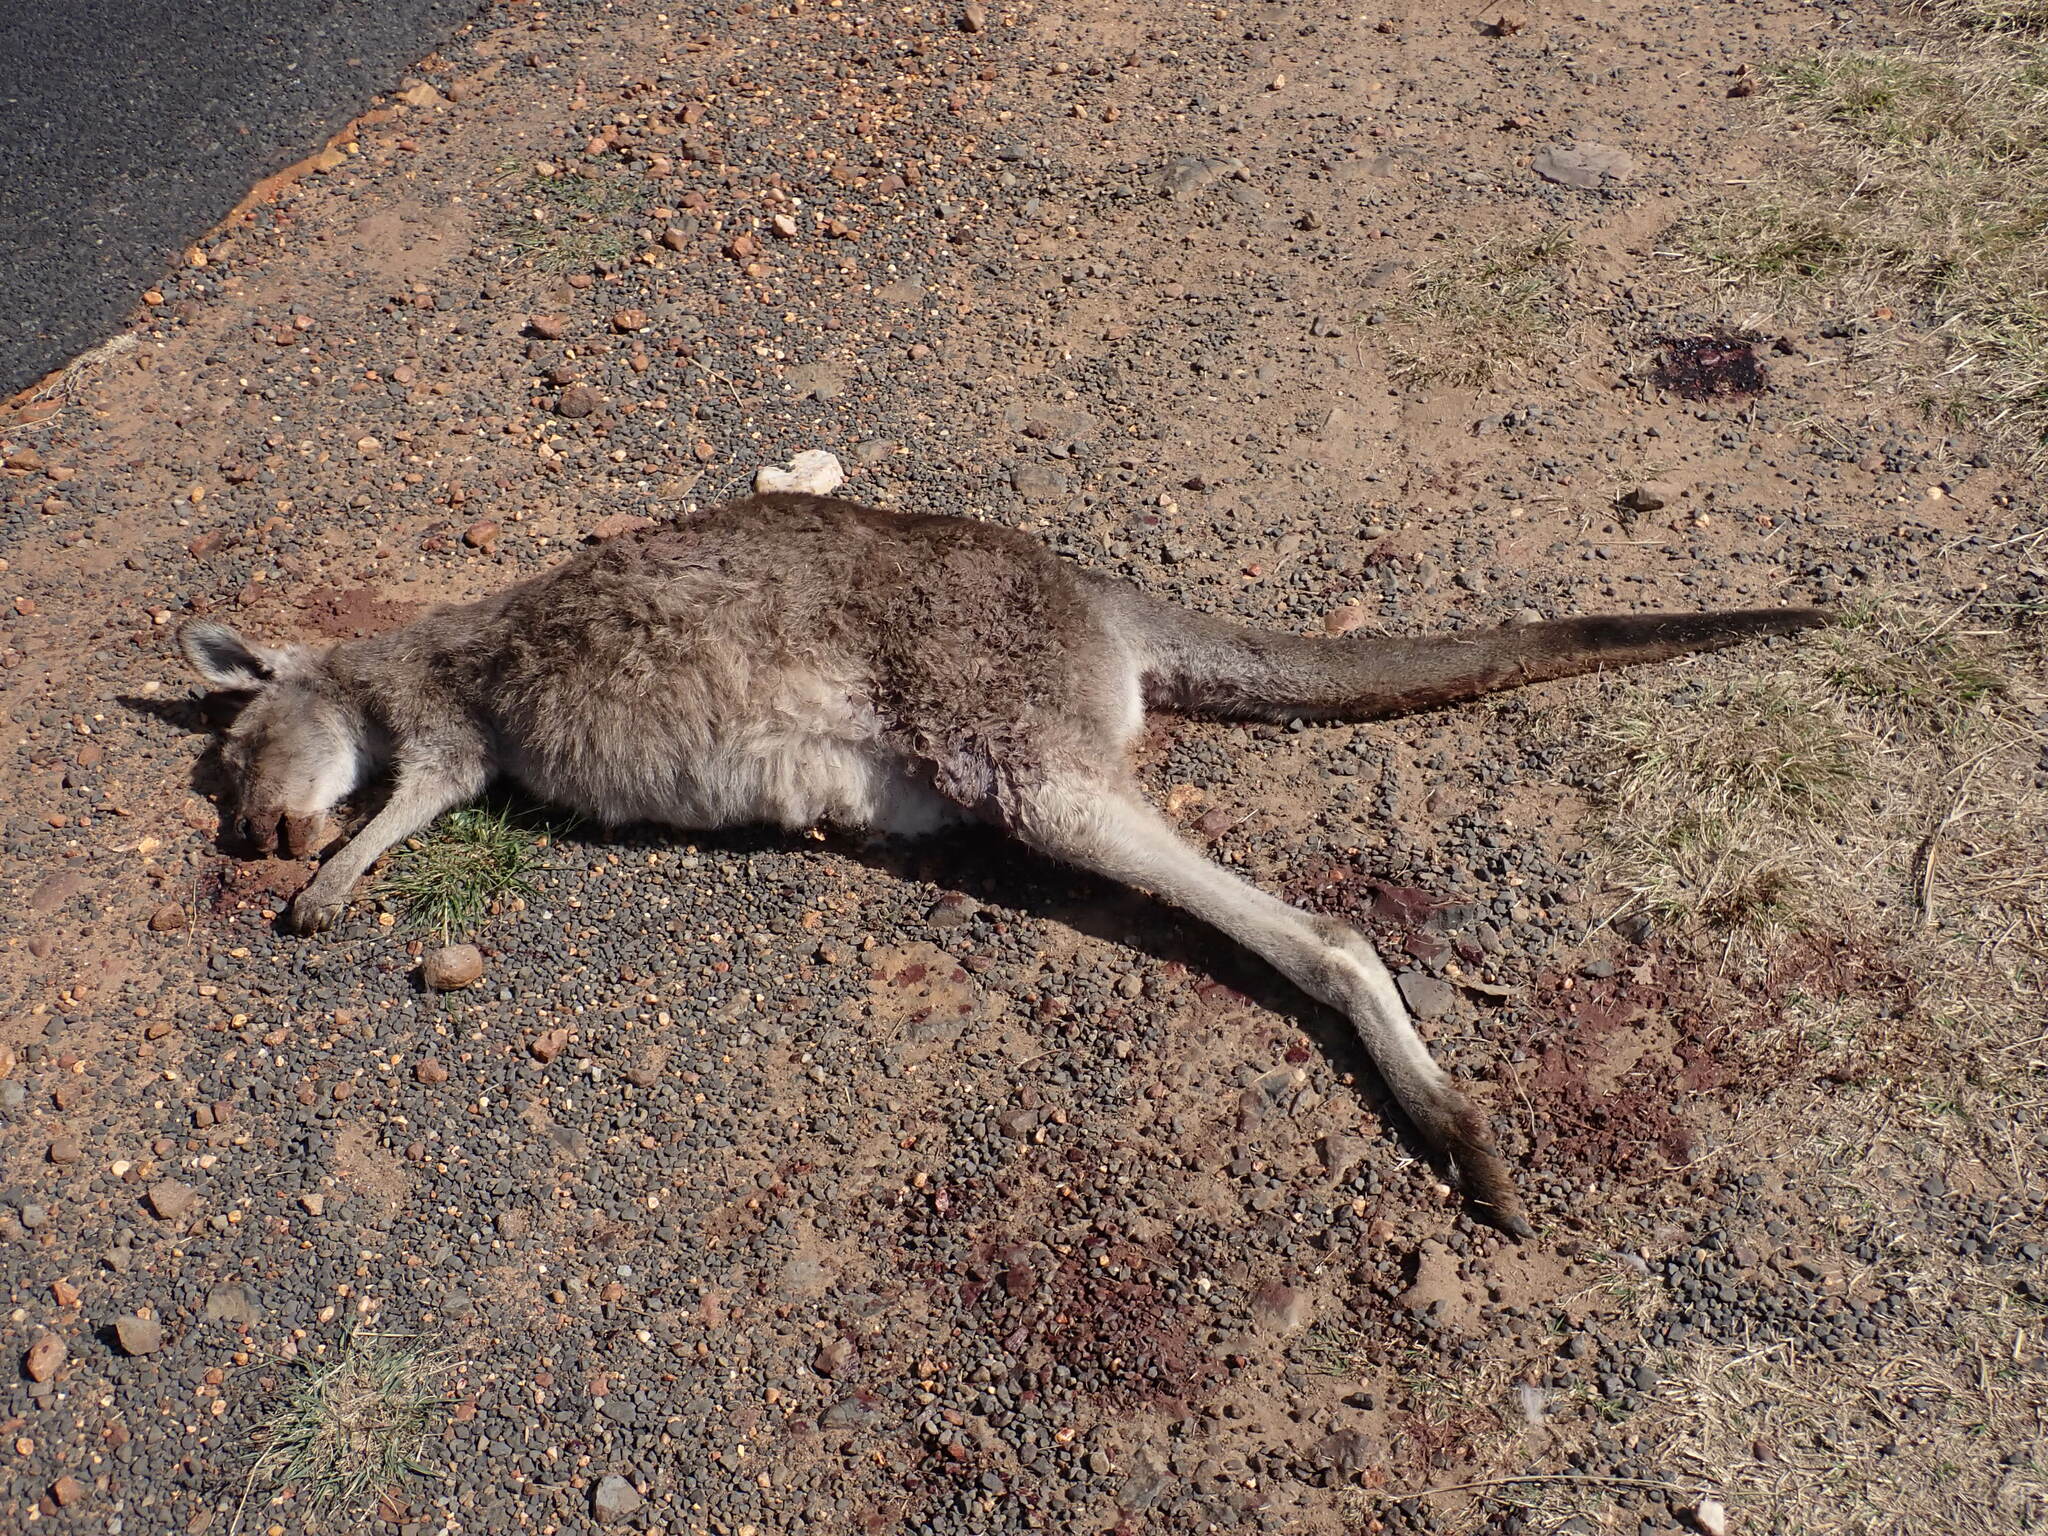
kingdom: Animalia
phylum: Chordata
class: Mammalia
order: Diprotodontia
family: Macropodidae
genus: Macropus
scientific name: Macropus giganteus
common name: Eastern grey kangaroo
